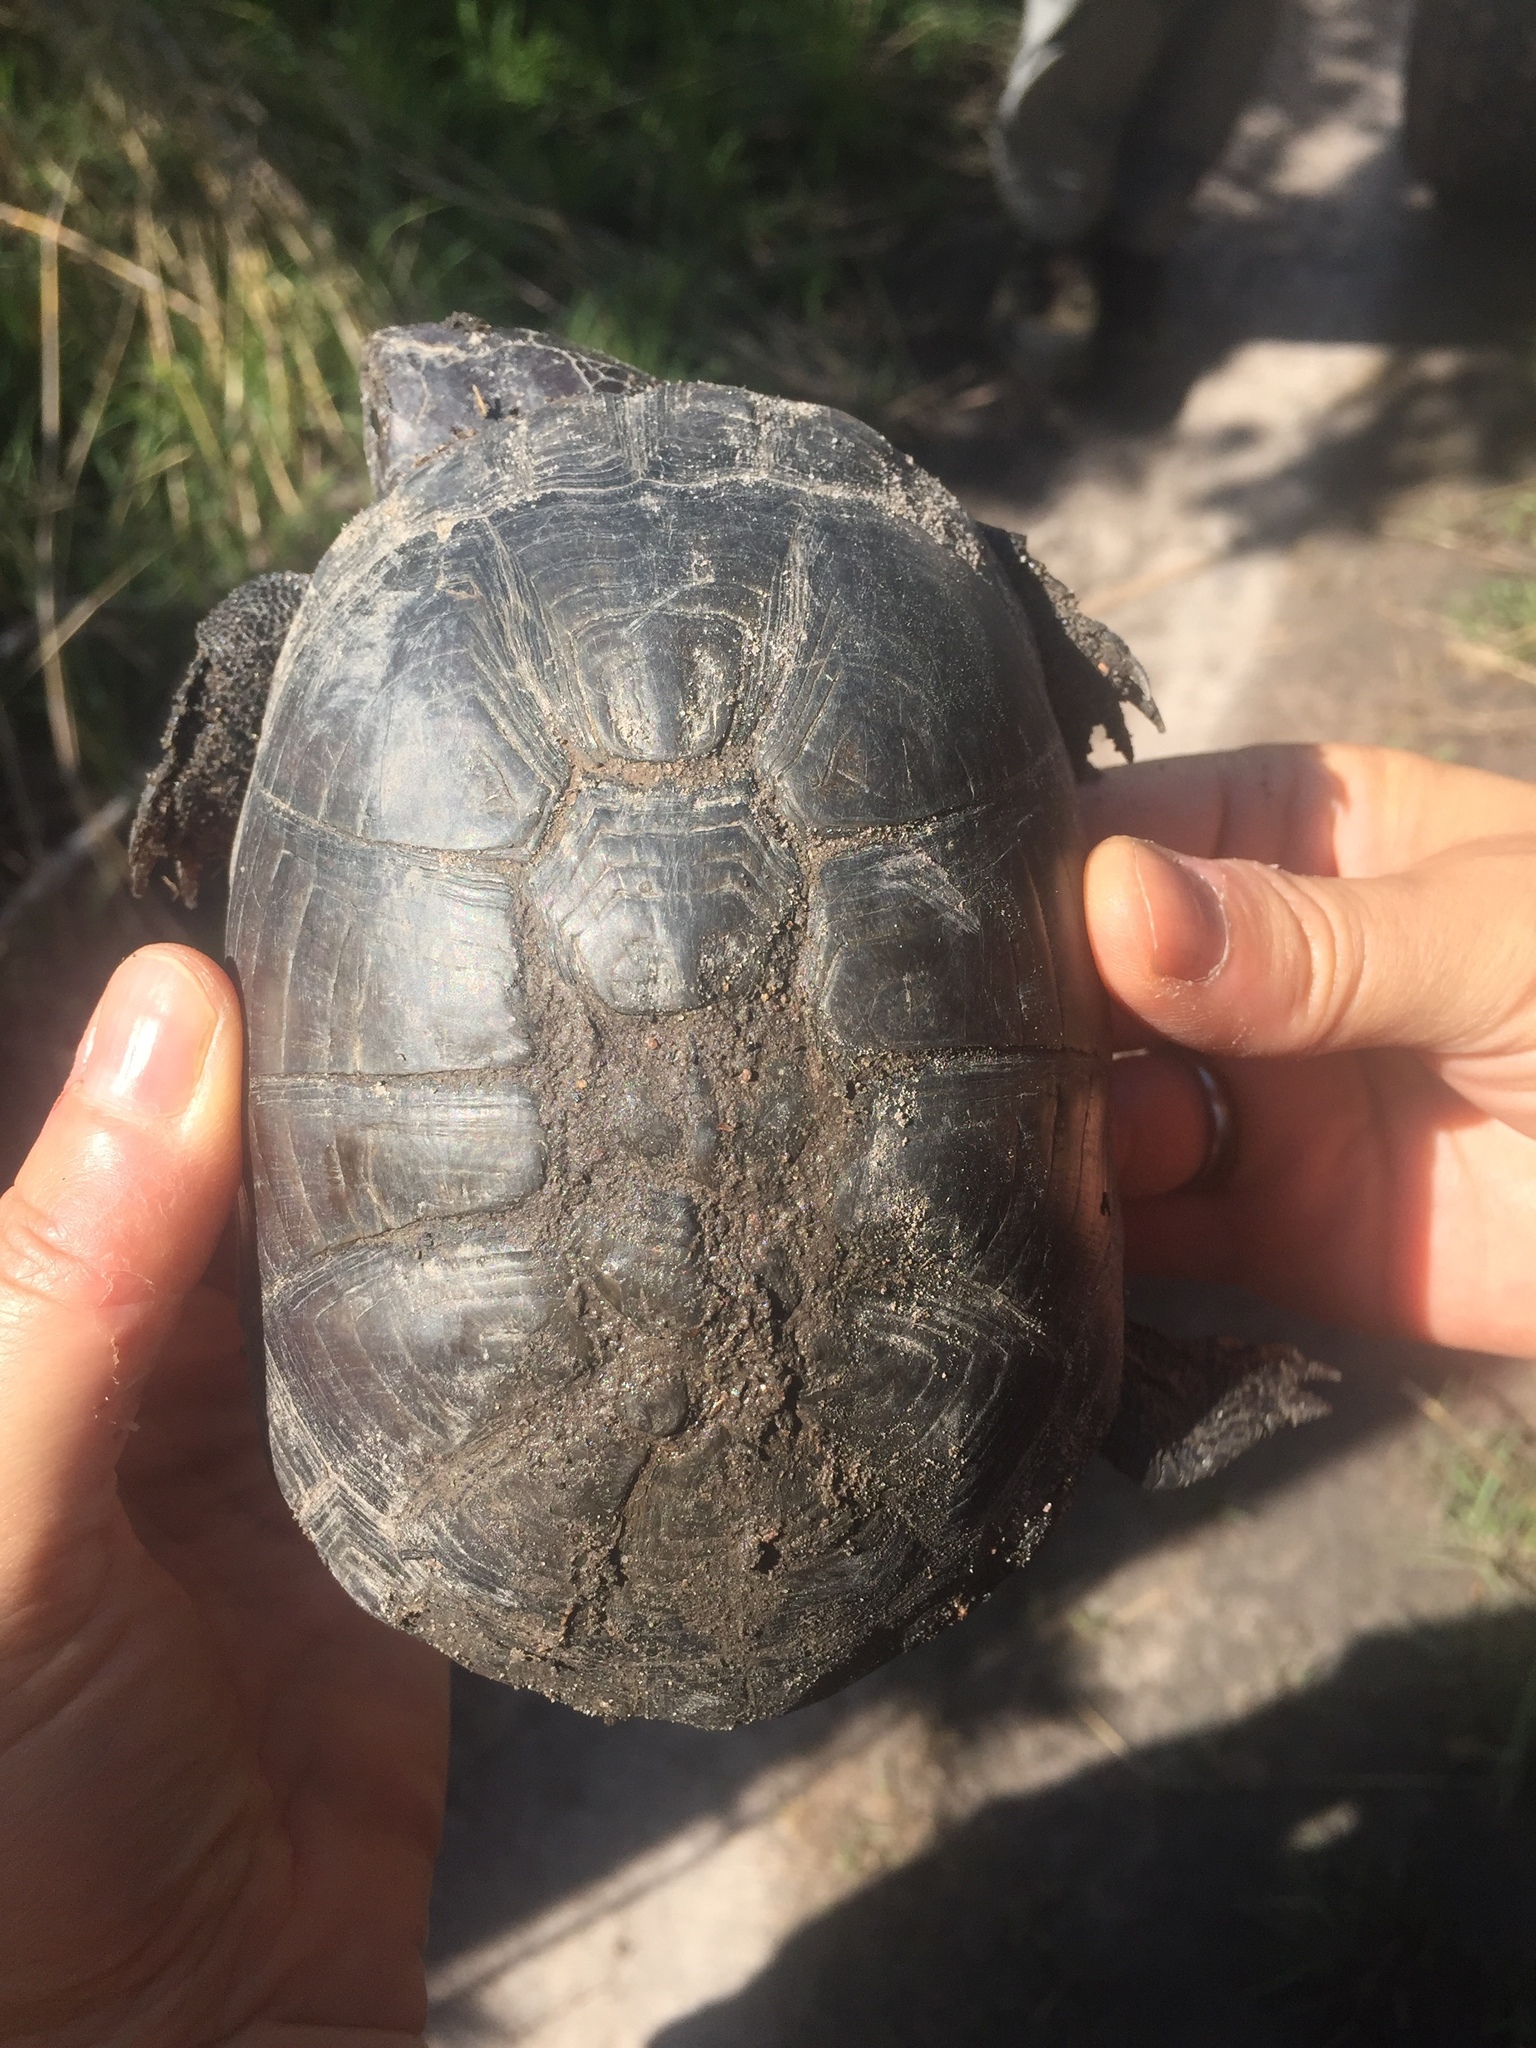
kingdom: Animalia
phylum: Chordata
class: Testudines
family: Pelomedusidae
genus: Pelusios
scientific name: Pelusios subniger
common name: East african black mud turtle
